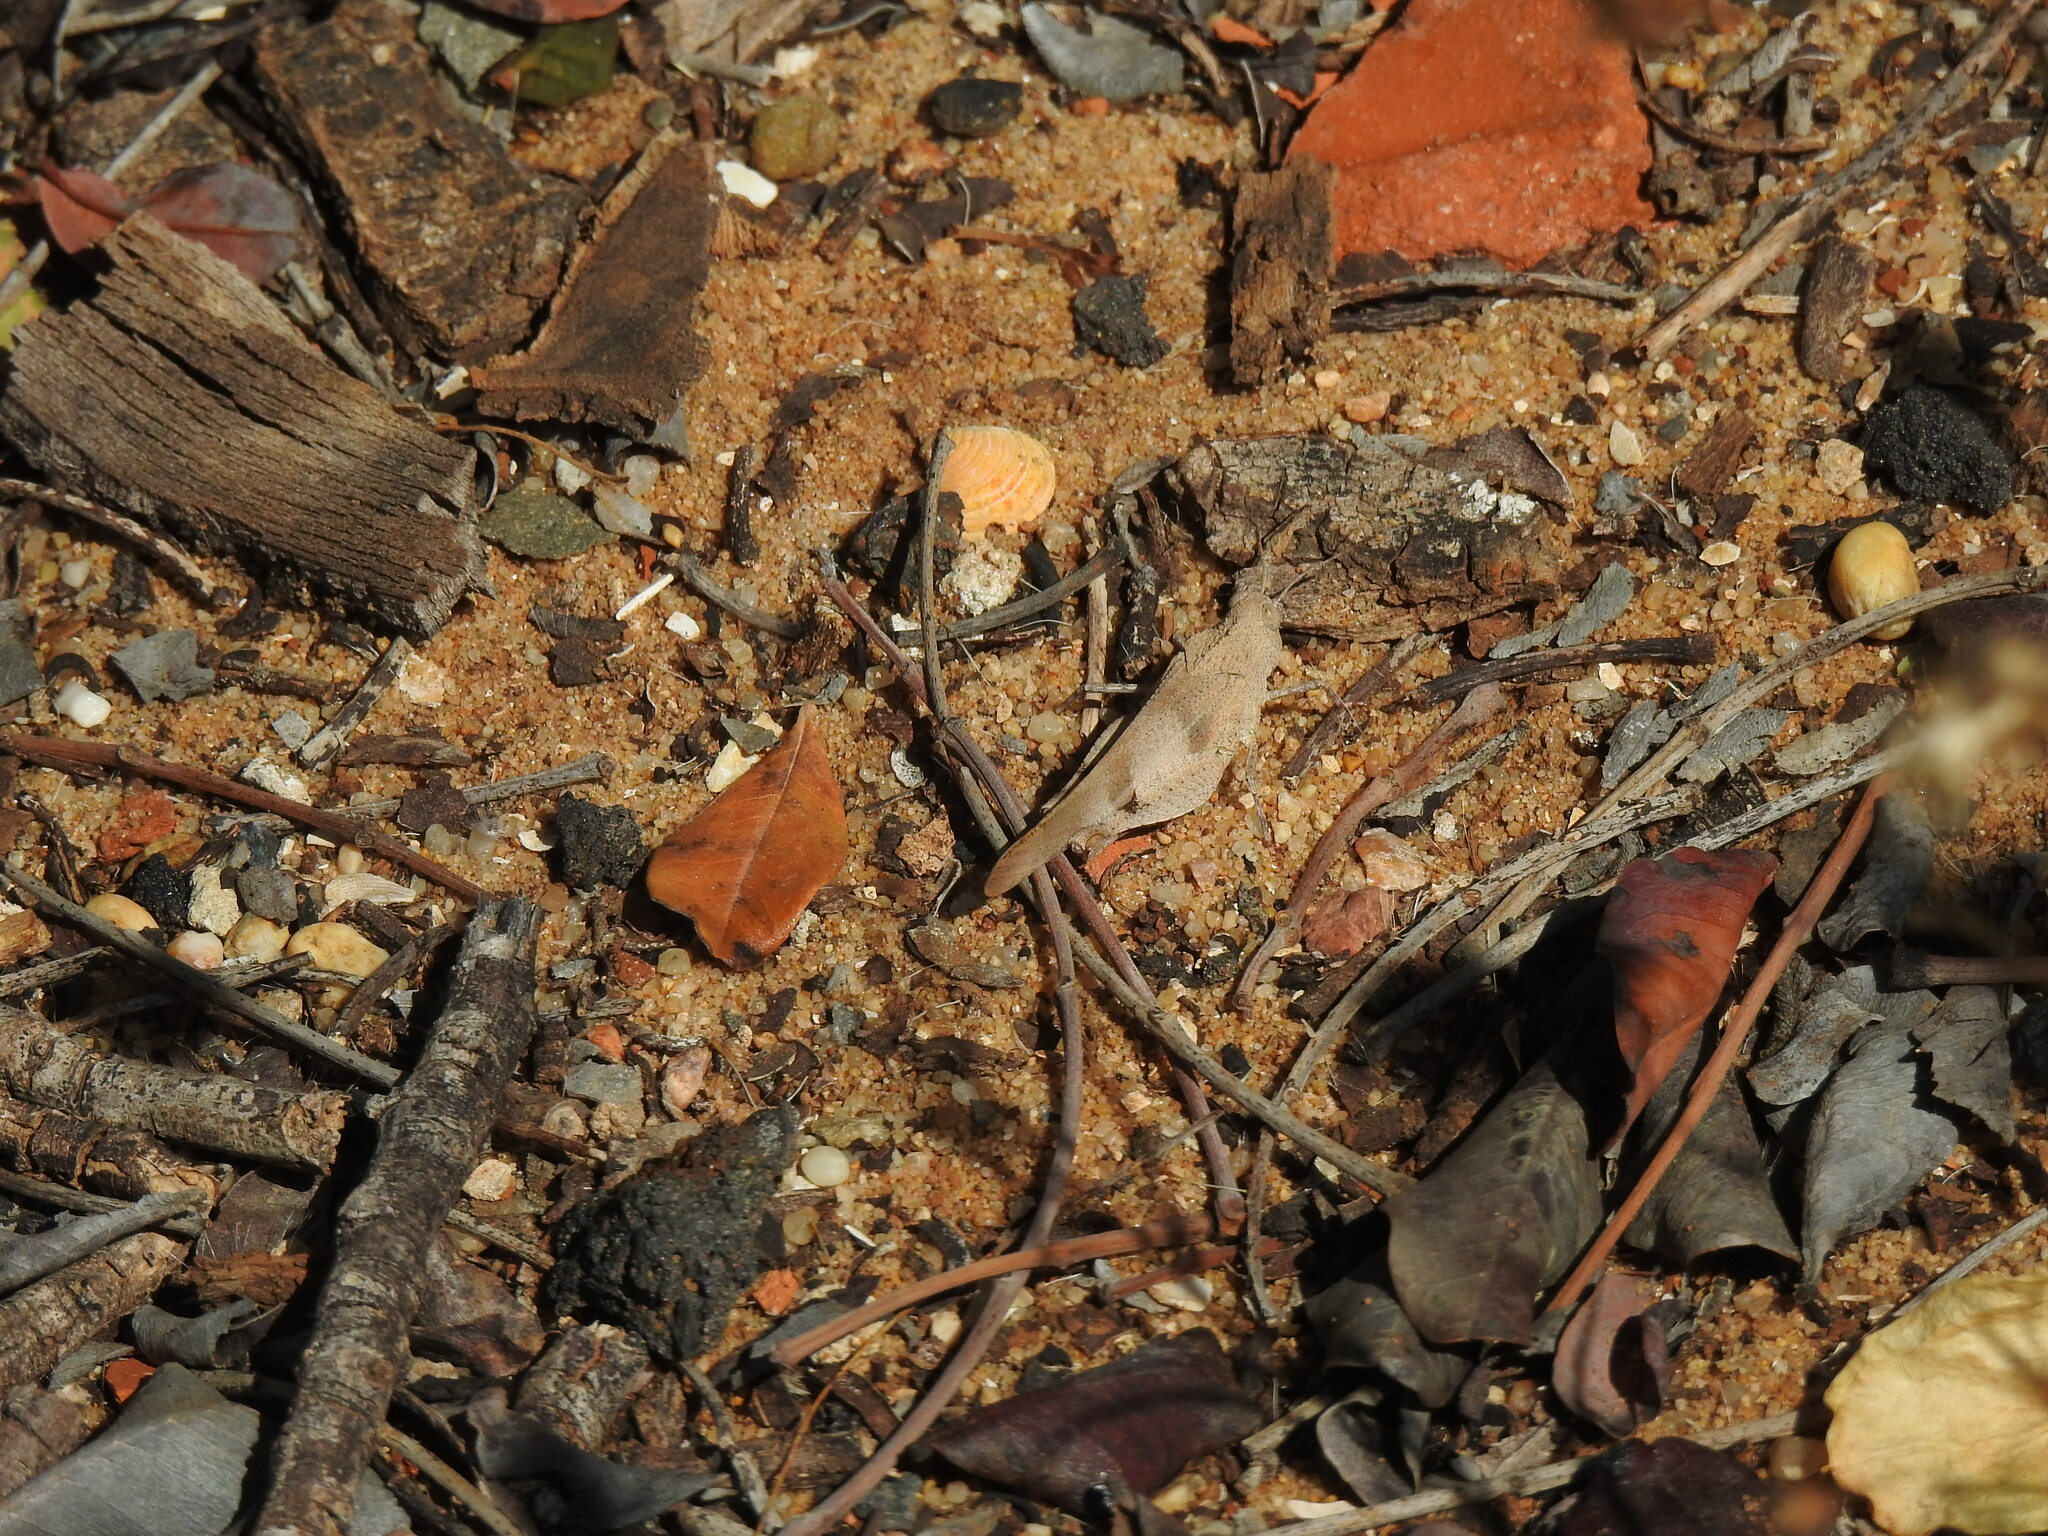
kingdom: Animalia
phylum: Arthropoda
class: Insecta
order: Orthoptera
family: Acrididae
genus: Oedipoda
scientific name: Oedipoda caerulescens
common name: Blue-winged grasshopper
